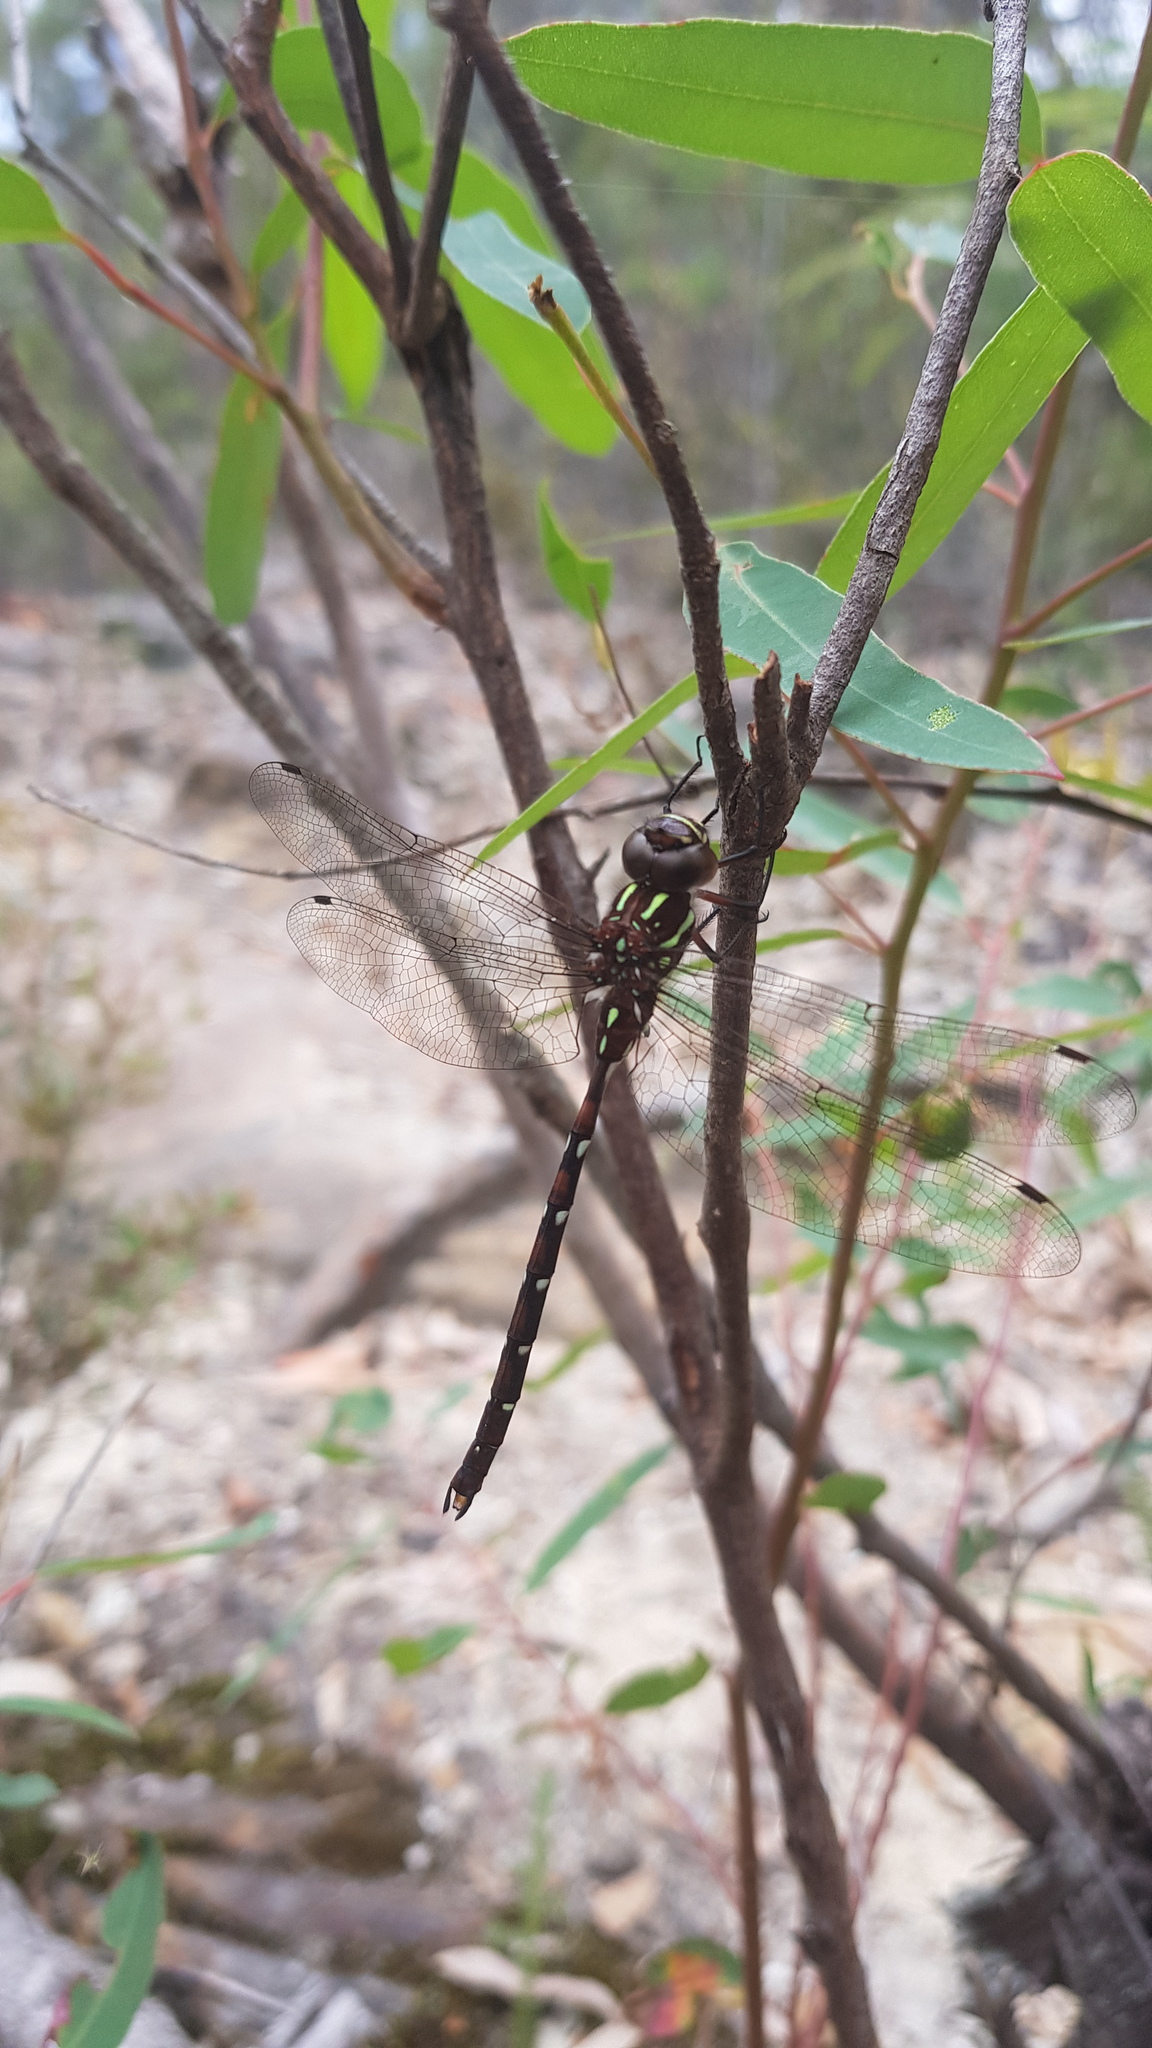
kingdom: Animalia
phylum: Arthropoda
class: Insecta
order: Odonata
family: Aeshnidae
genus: Austroaeschna
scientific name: Austroaeschna pulchra
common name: Forest darner
